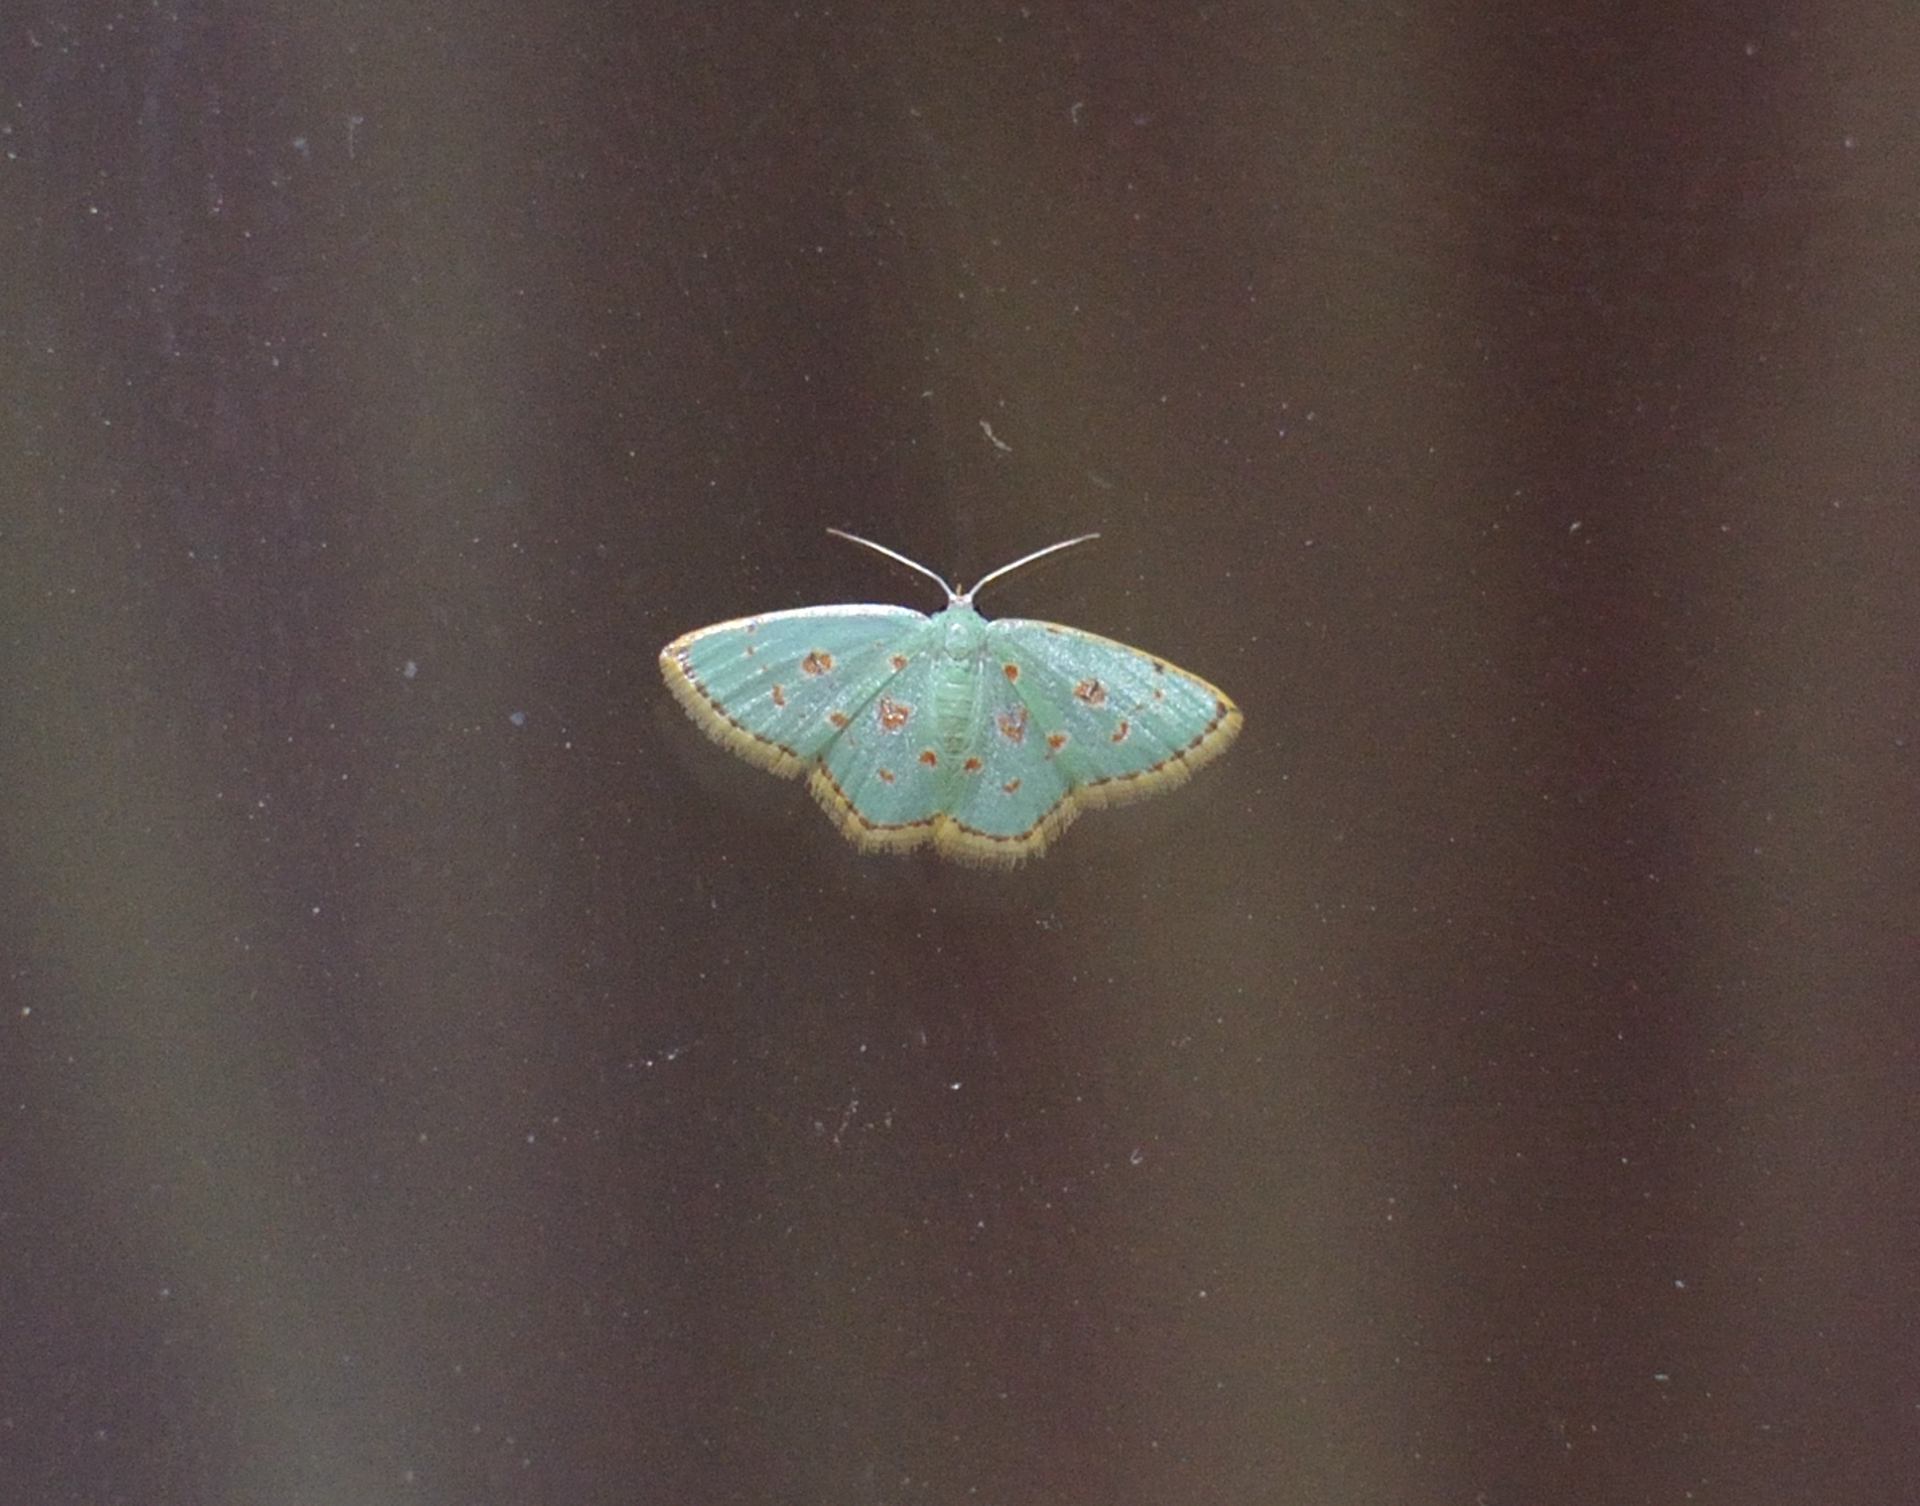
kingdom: Animalia
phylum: Arthropoda
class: Insecta
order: Lepidoptera
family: Geometridae
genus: Comostola
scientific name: Comostola laesaria
